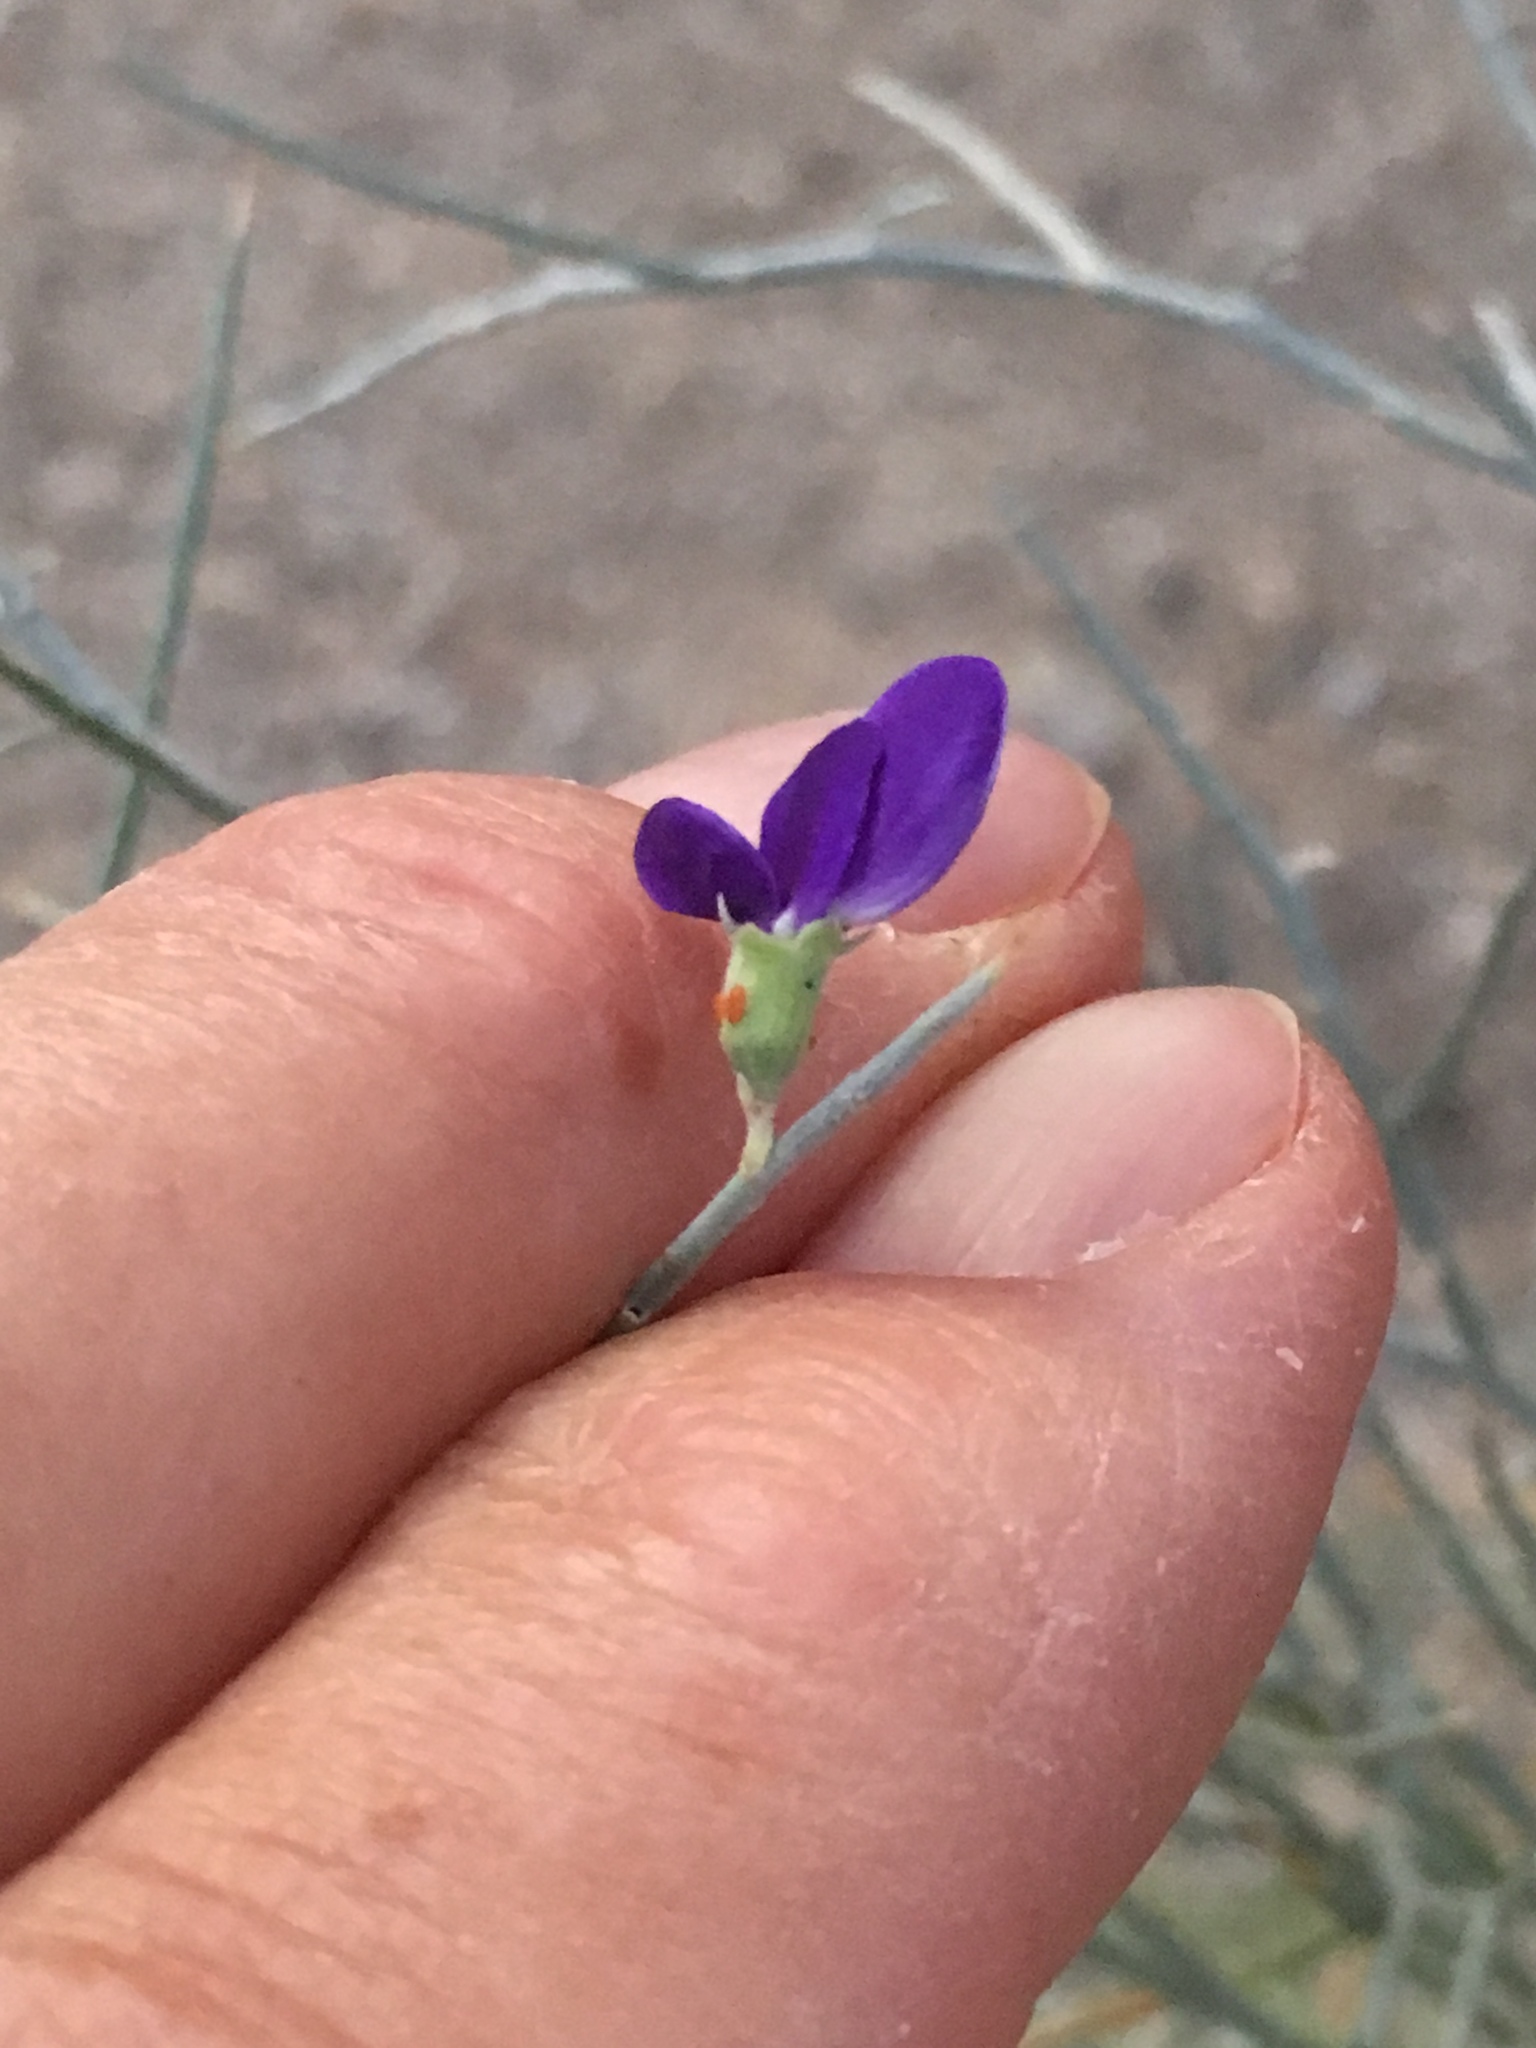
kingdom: Plantae
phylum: Tracheophyta
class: Magnoliopsida
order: Fabales
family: Fabaceae
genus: Psorothamnus
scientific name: Psorothamnus spinosus
